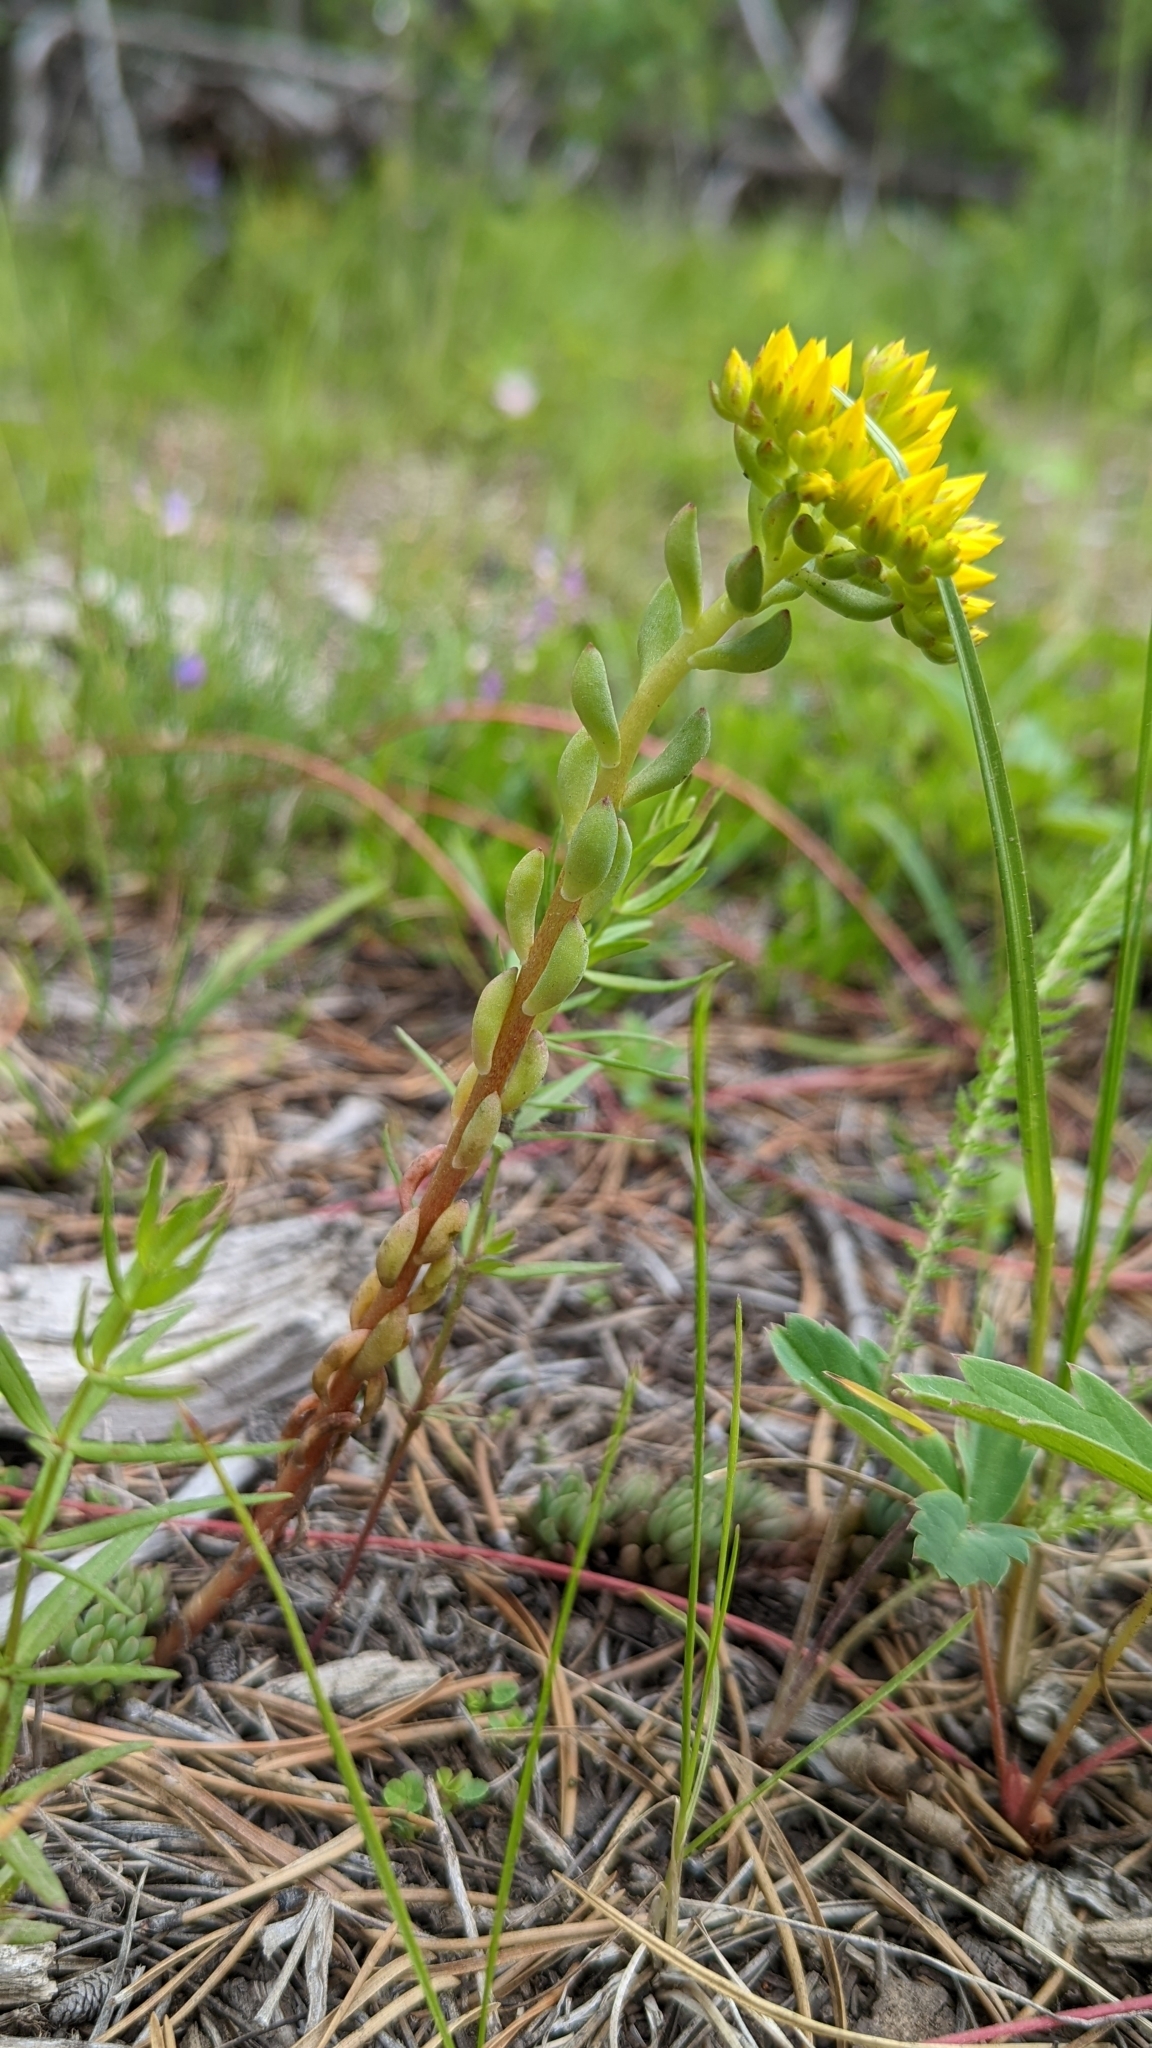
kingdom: Plantae
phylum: Tracheophyta
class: Magnoliopsida
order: Saxifragales
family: Crassulaceae
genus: Sedum
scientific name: Sedum lanceolatum
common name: Common stonecrop
